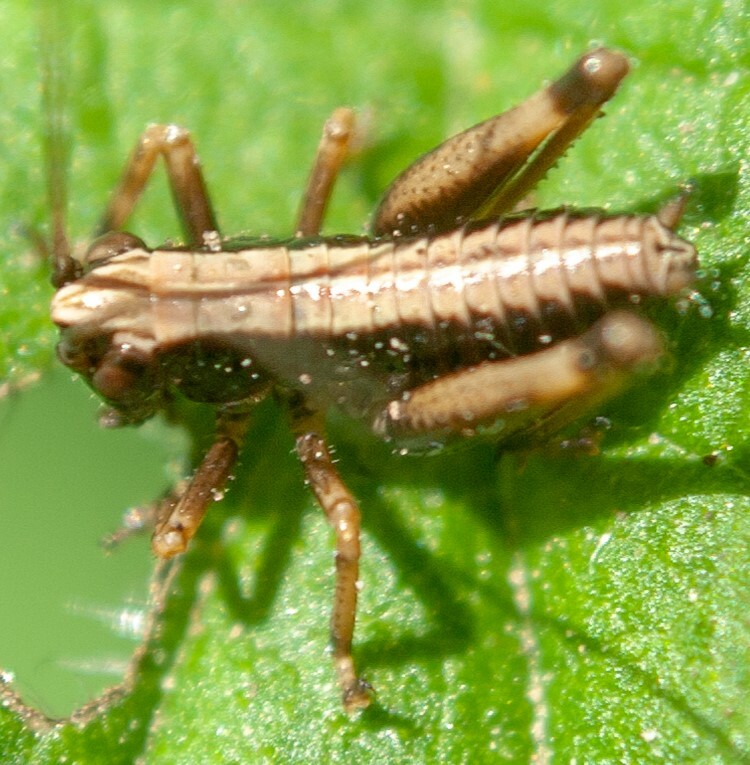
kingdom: Animalia
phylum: Arthropoda
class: Insecta
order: Orthoptera
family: Tettigoniidae
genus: Pholidoptera
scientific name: Pholidoptera griseoaptera
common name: Dark bush-cricket
